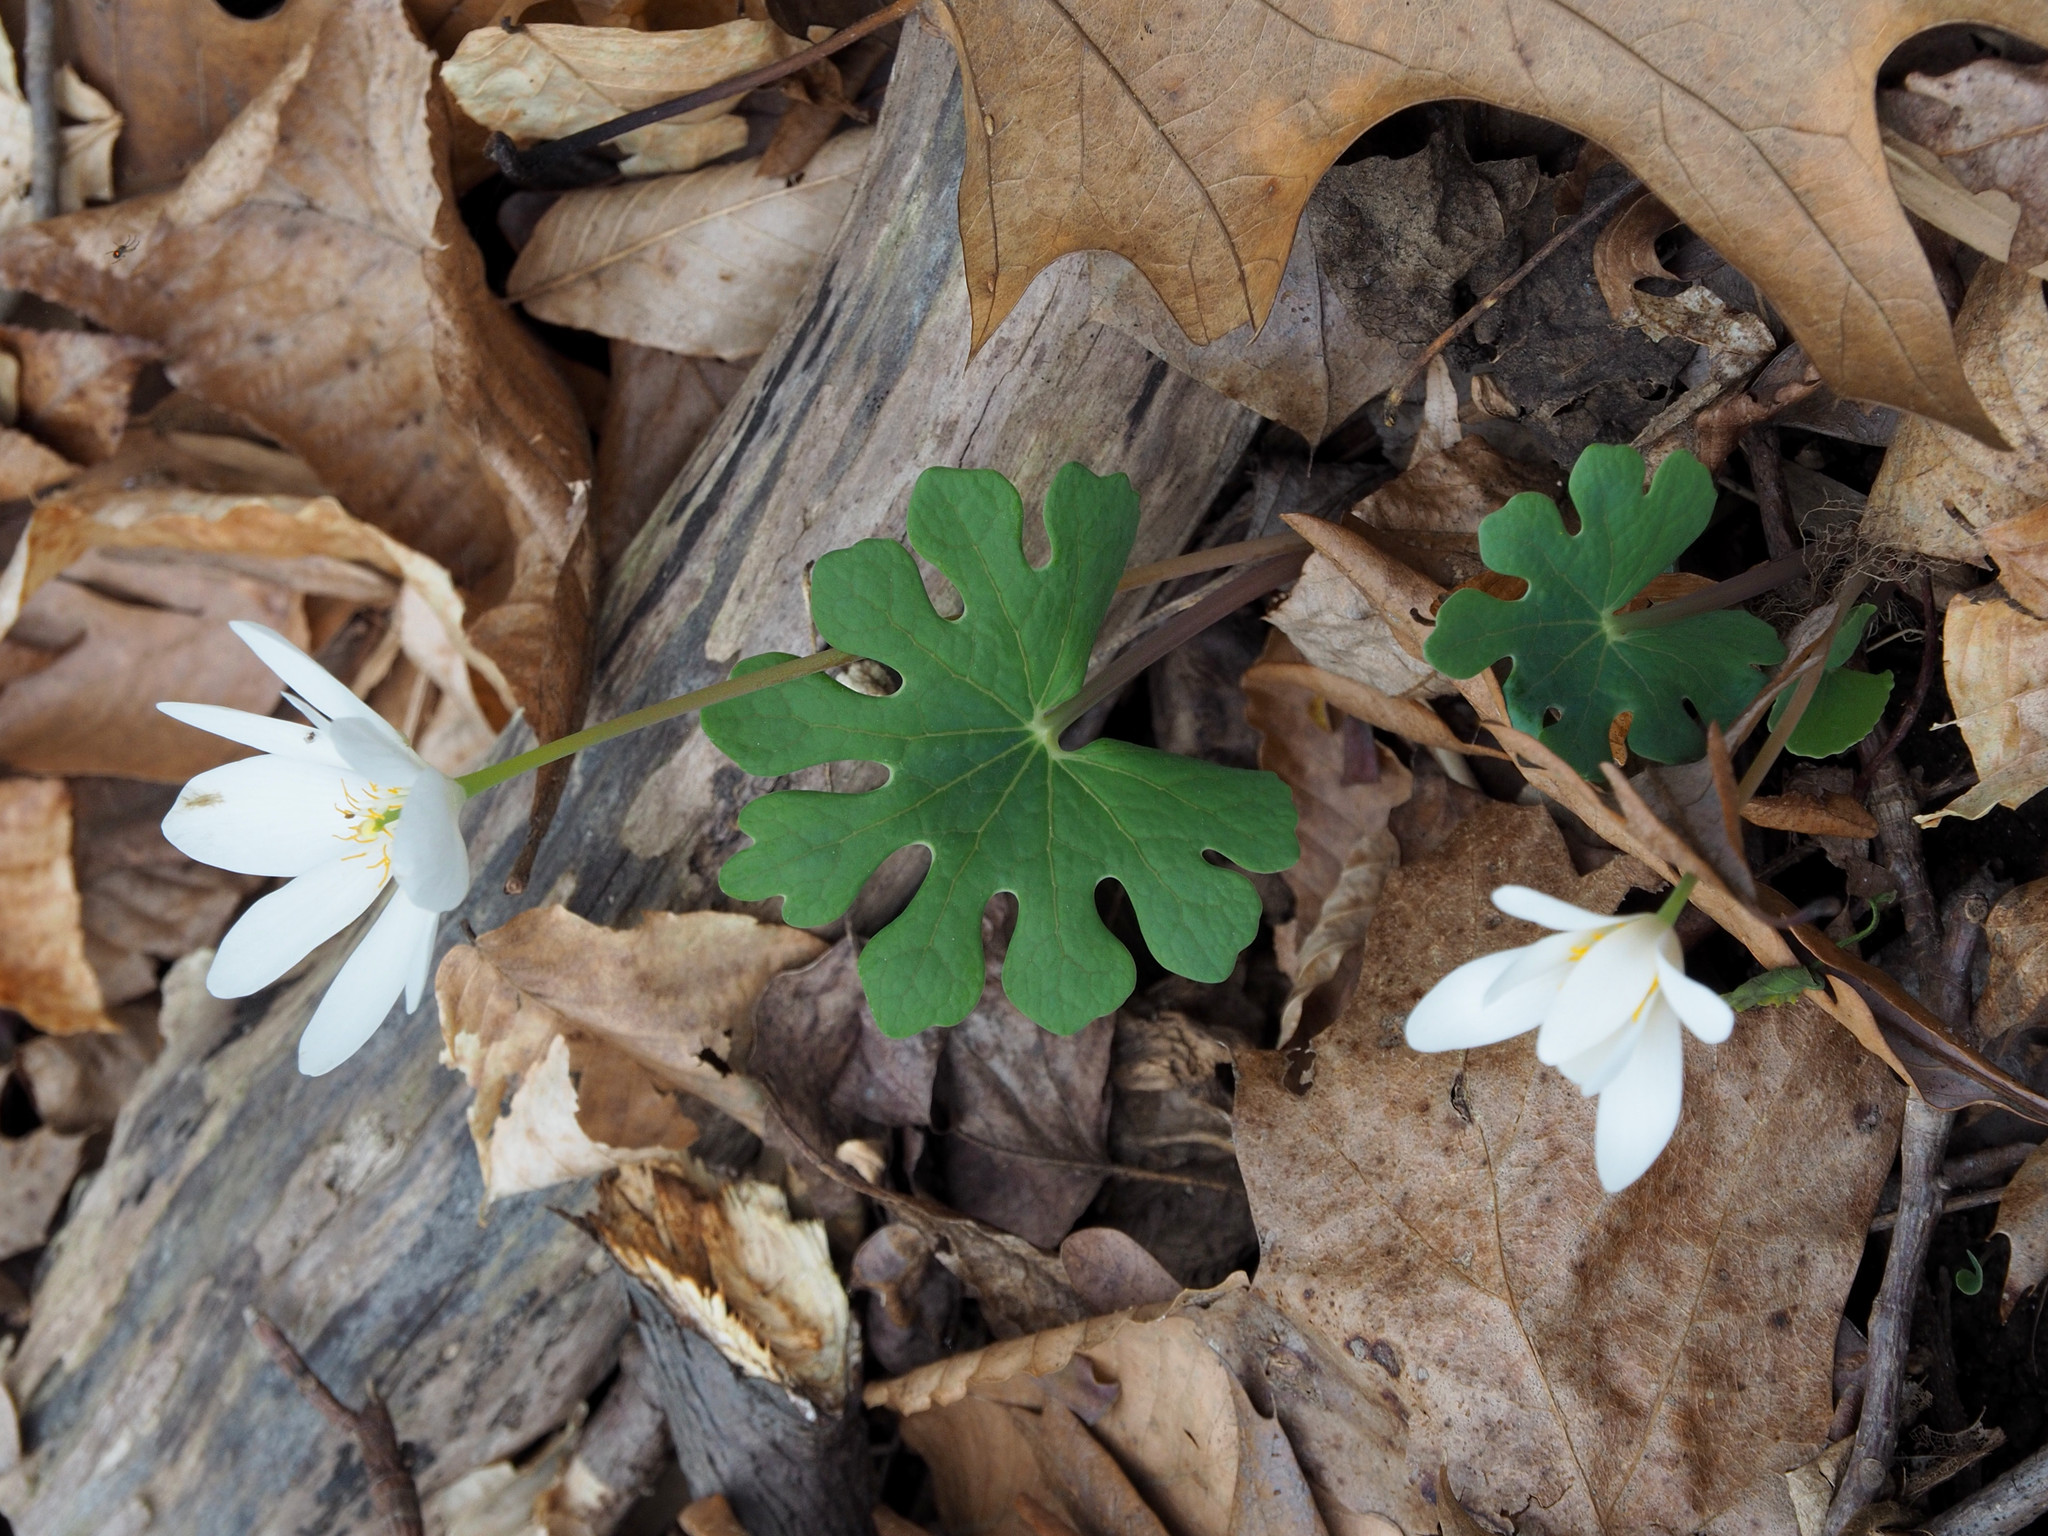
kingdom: Plantae
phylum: Tracheophyta
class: Magnoliopsida
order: Ranunculales
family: Papaveraceae
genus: Sanguinaria
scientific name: Sanguinaria canadensis
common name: Bloodroot
